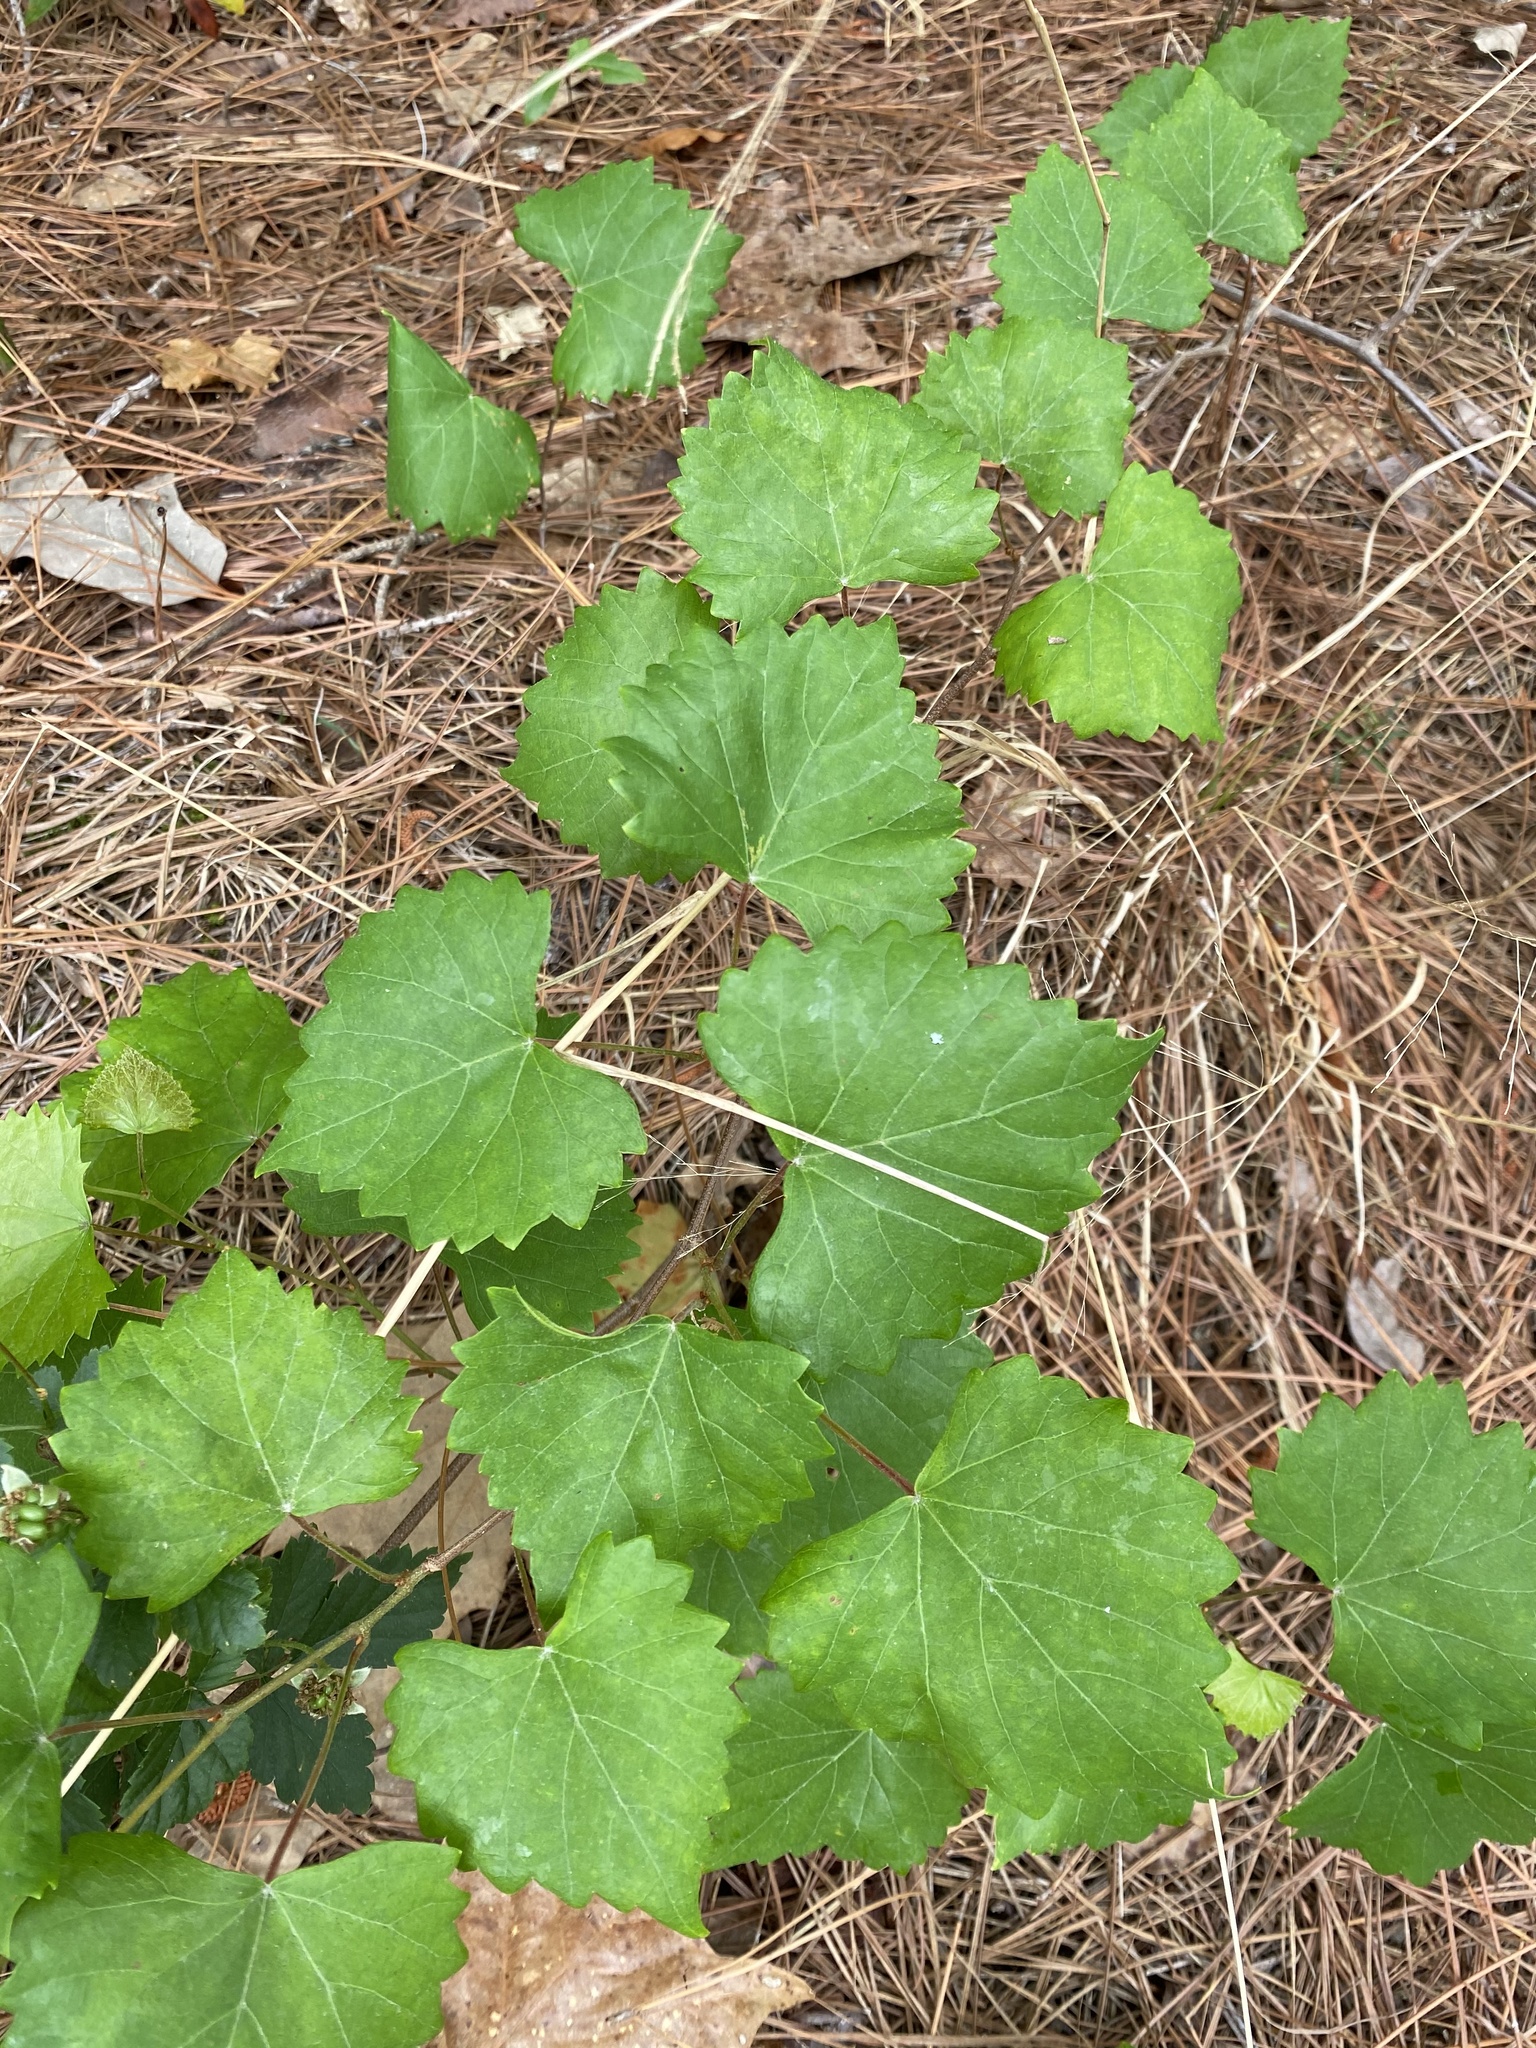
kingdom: Plantae
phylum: Tracheophyta
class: Magnoliopsida
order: Vitales
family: Vitaceae
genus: Vitis
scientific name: Vitis rotundifolia
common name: Muscadine grape
